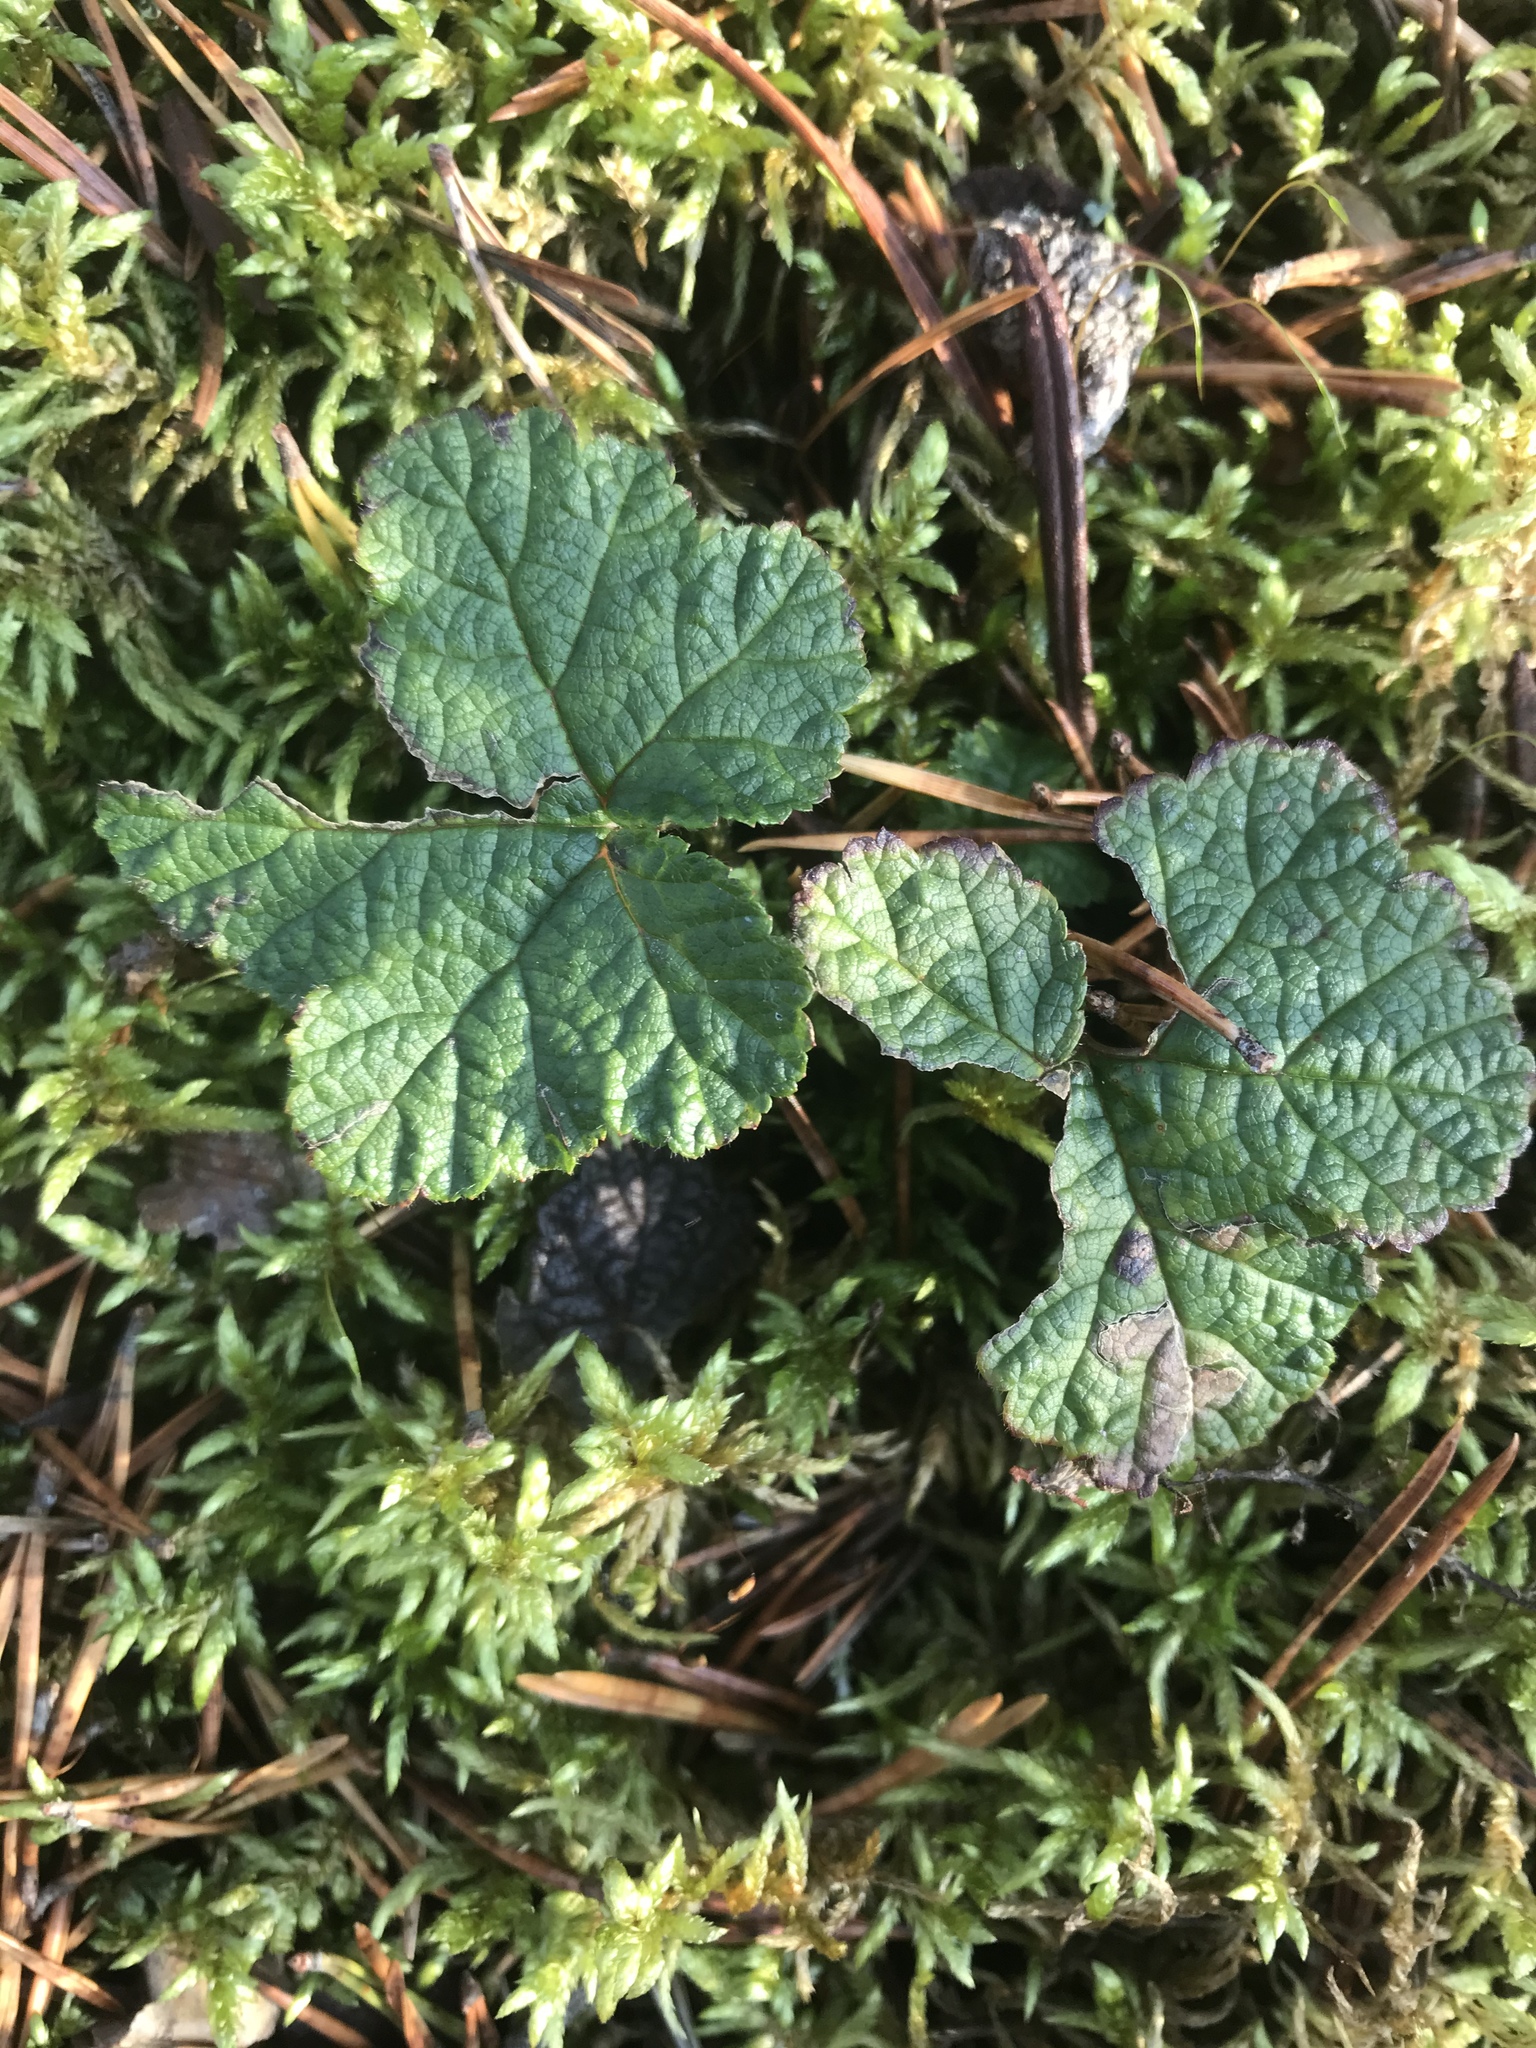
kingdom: Plantae
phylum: Tracheophyta
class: Magnoliopsida
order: Rosales
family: Rosaceae
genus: Rubus
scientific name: Rubus chamaemorus
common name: Cloudberry
